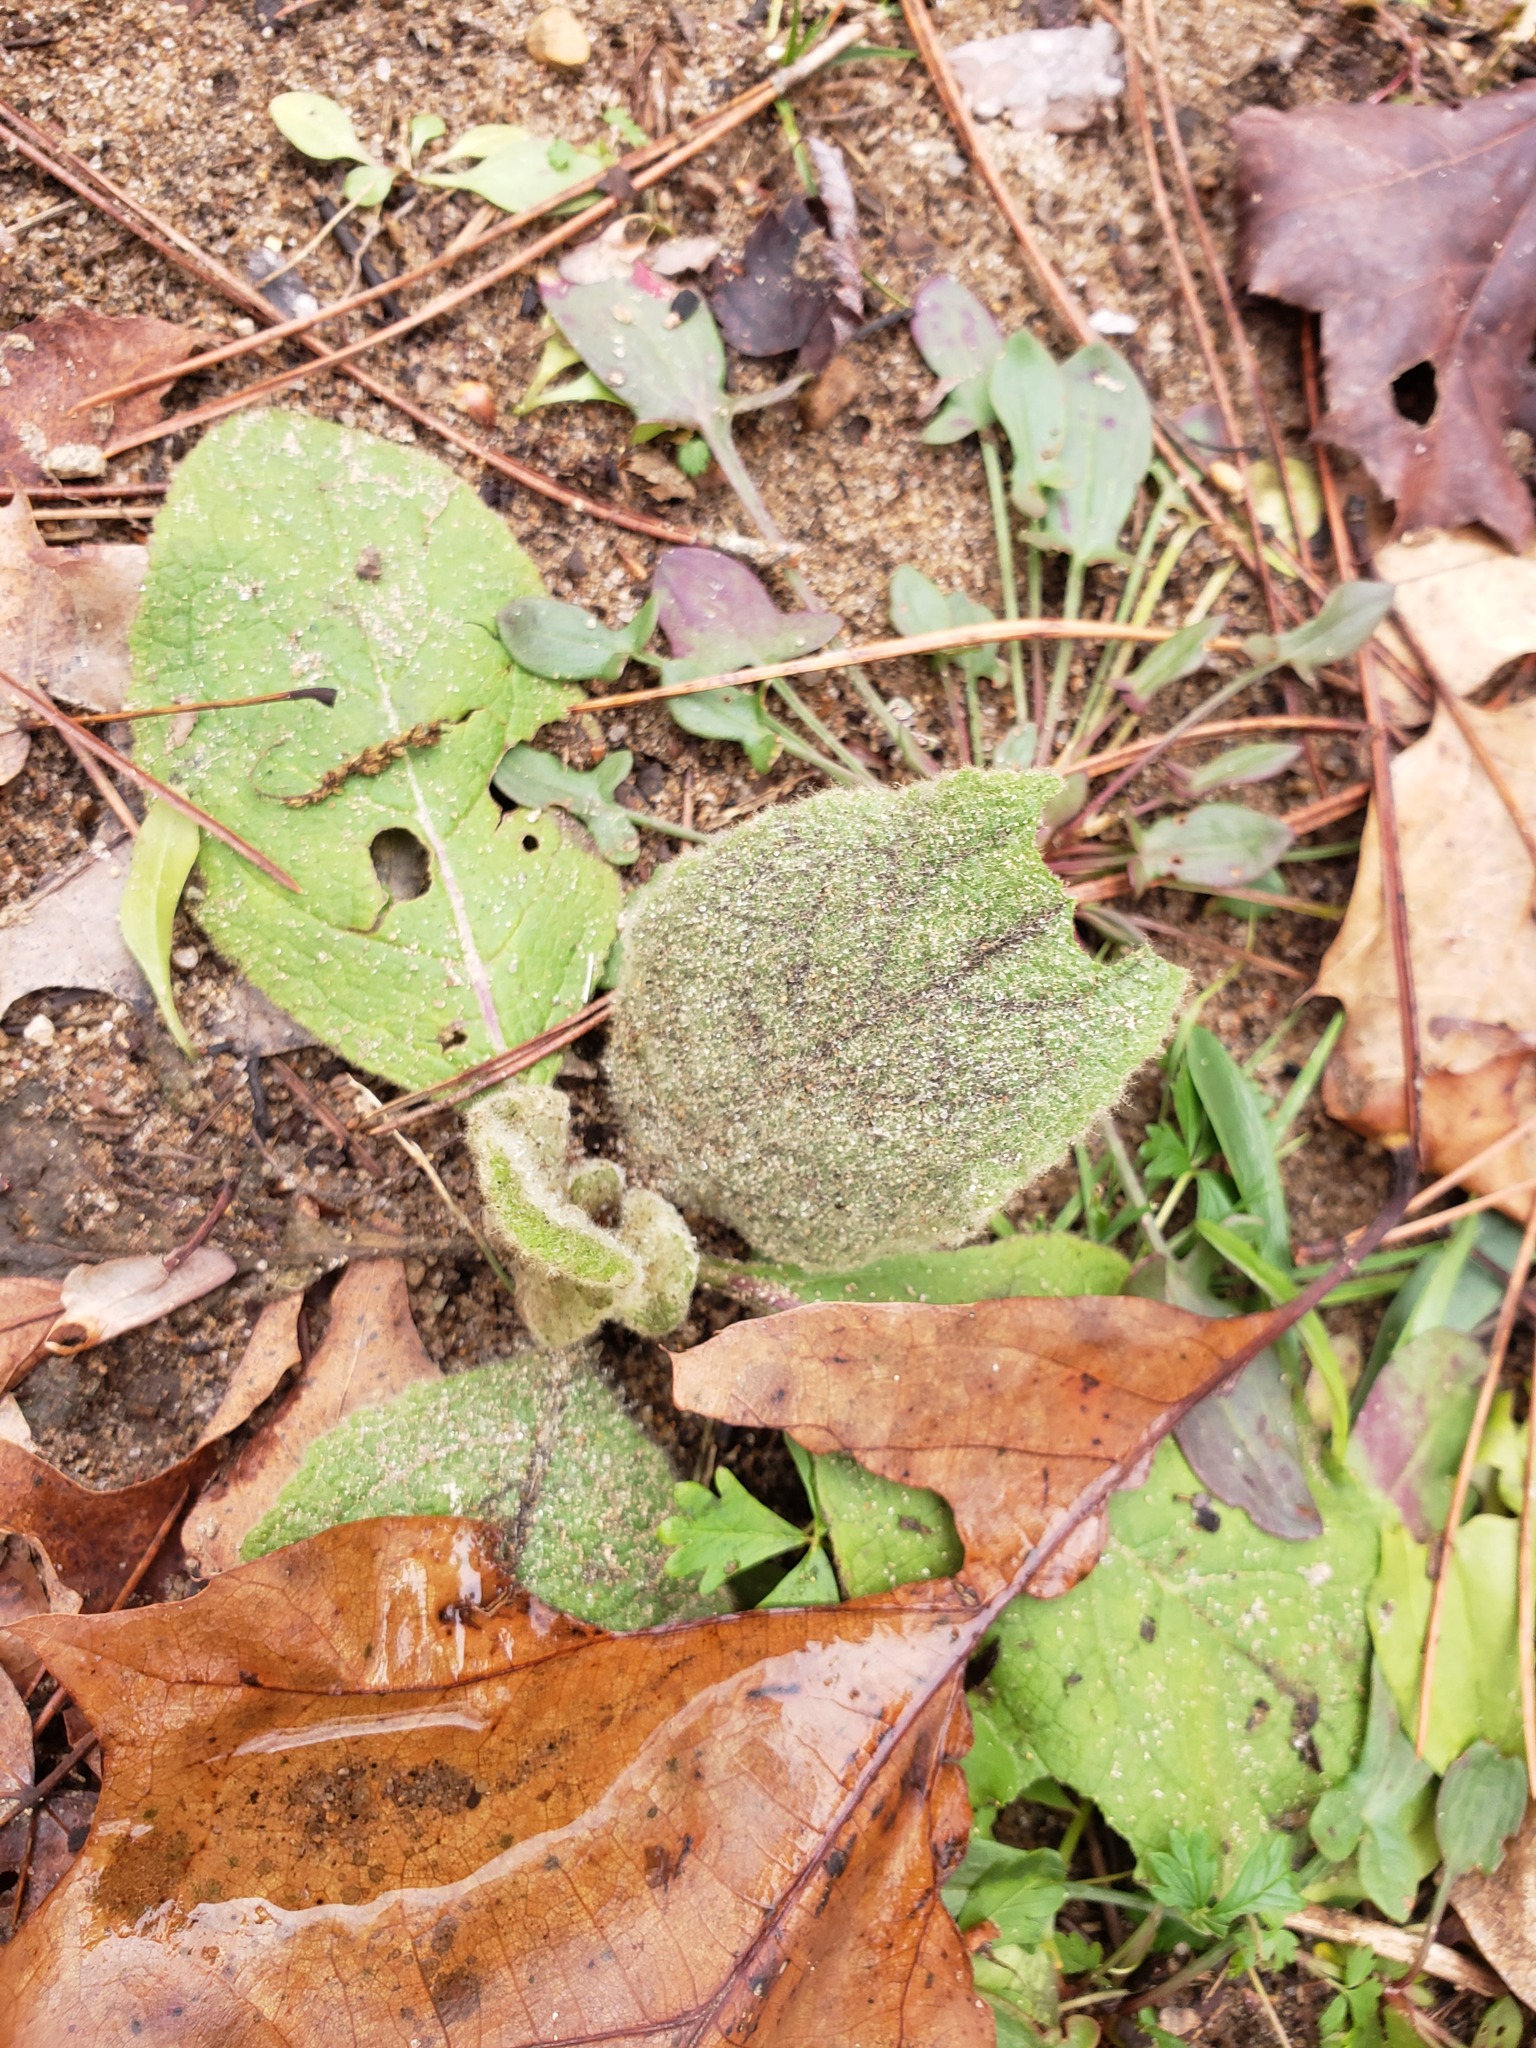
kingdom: Plantae
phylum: Tracheophyta
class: Magnoliopsida
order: Lamiales
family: Scrophulariaceae
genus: Verbascum
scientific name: Verbascum thapsus
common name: Common mullein
